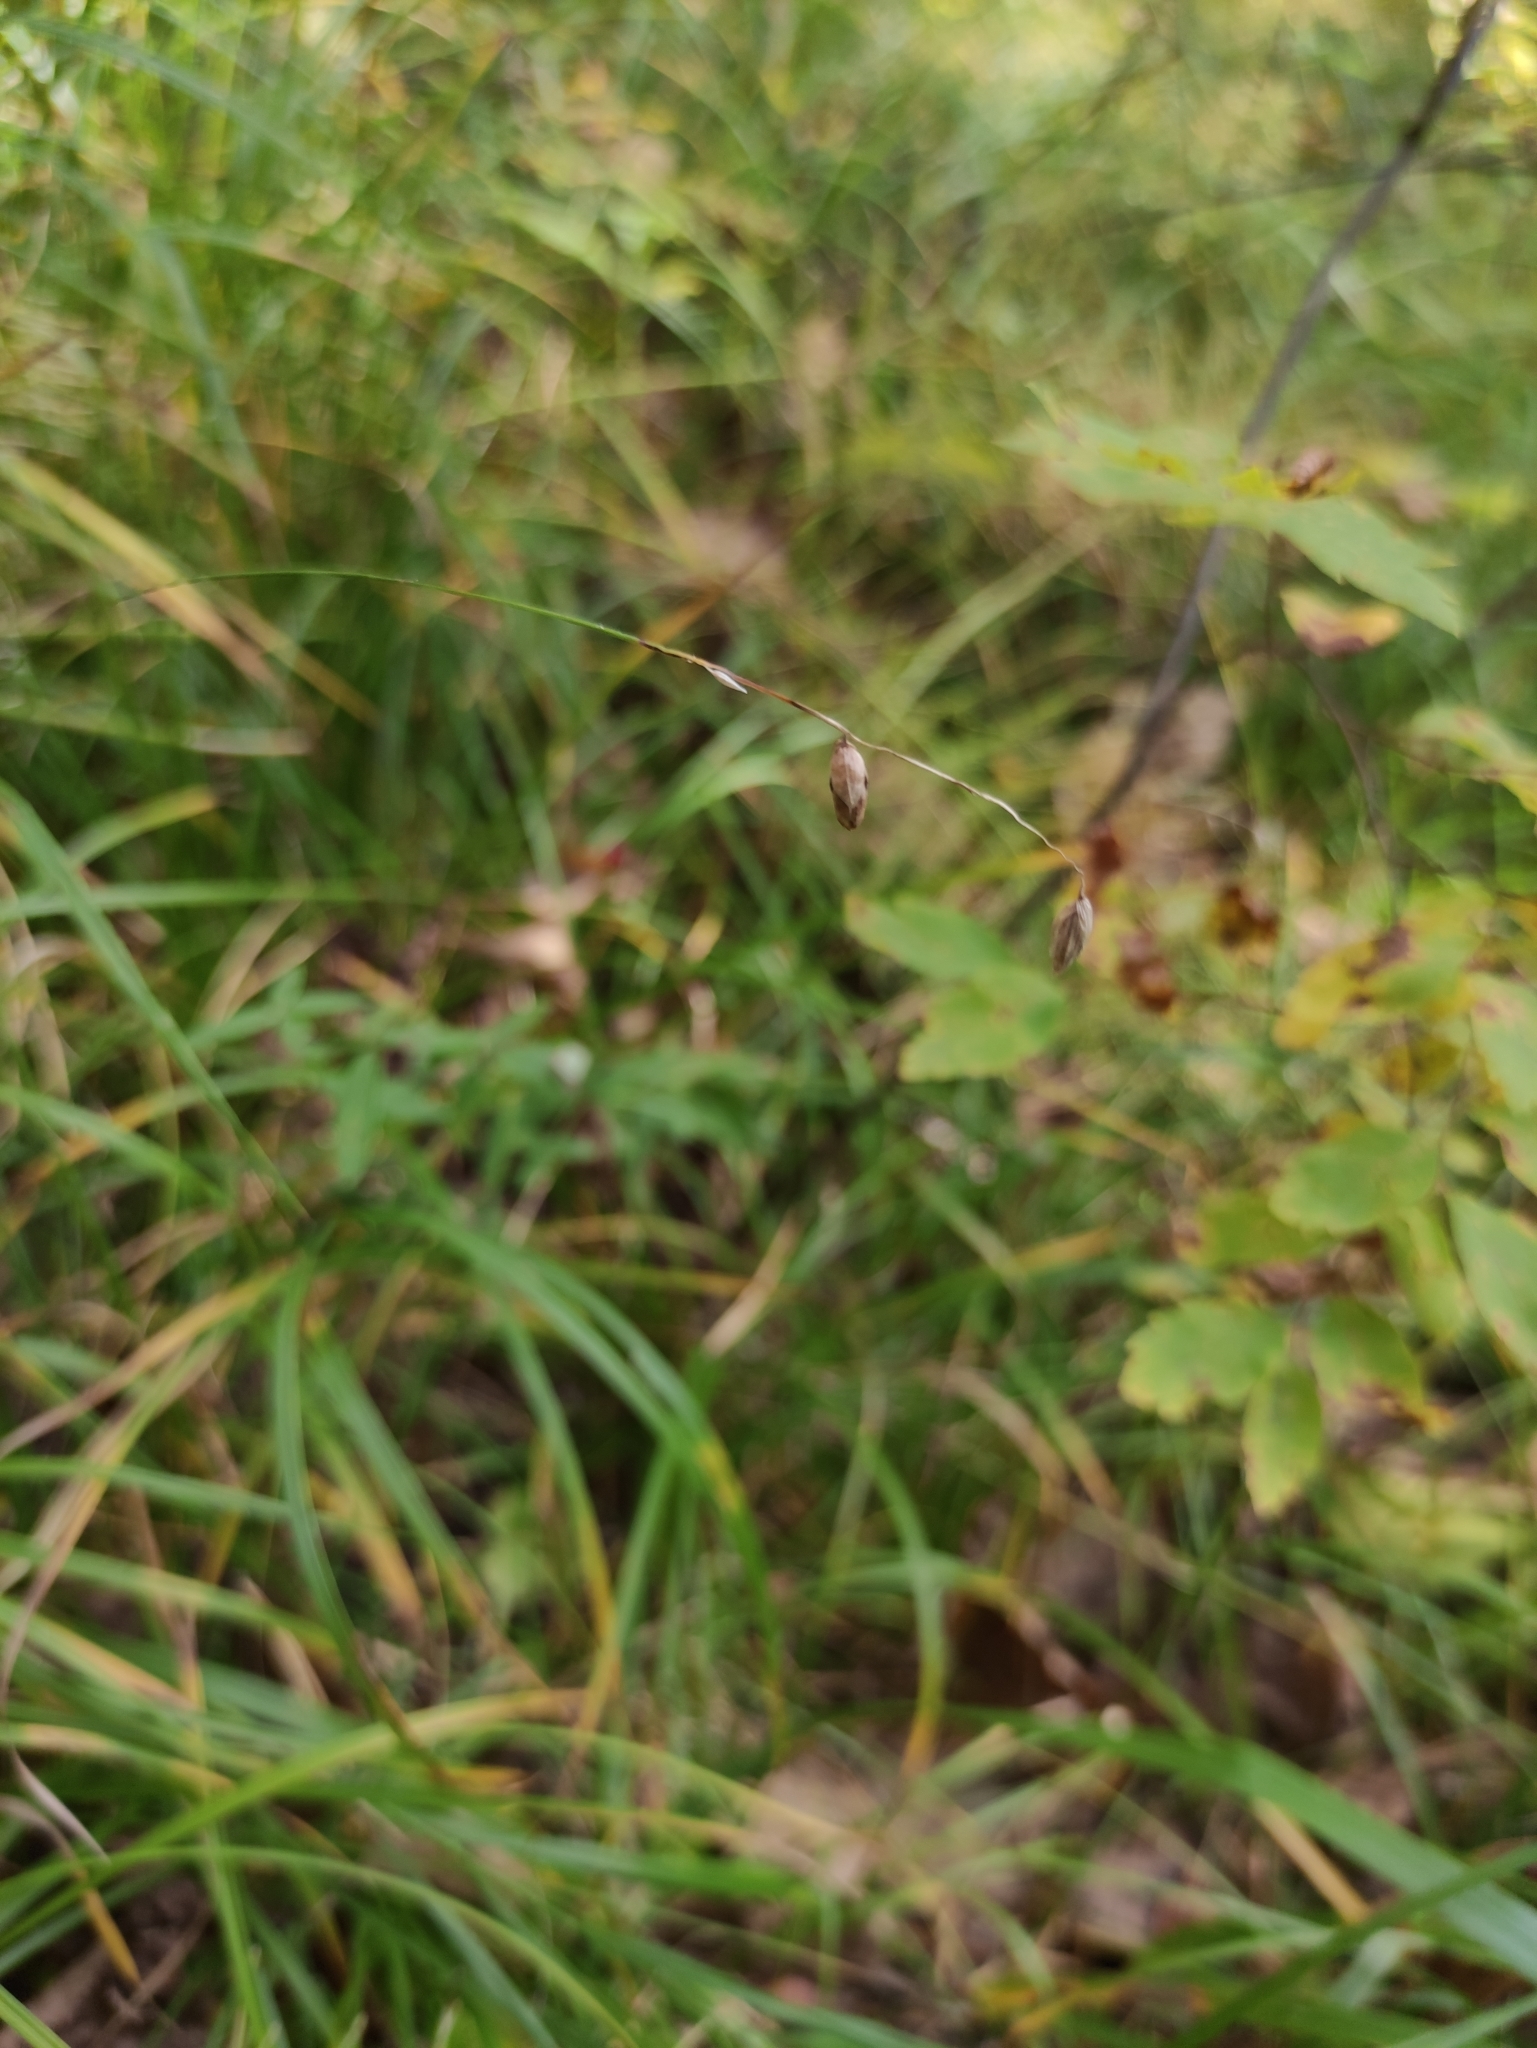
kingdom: Plantae
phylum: Tracheophyta
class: Liliopsida
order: Poales
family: Poaceae
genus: Melica
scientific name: Melica nutans
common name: Mountain melick
